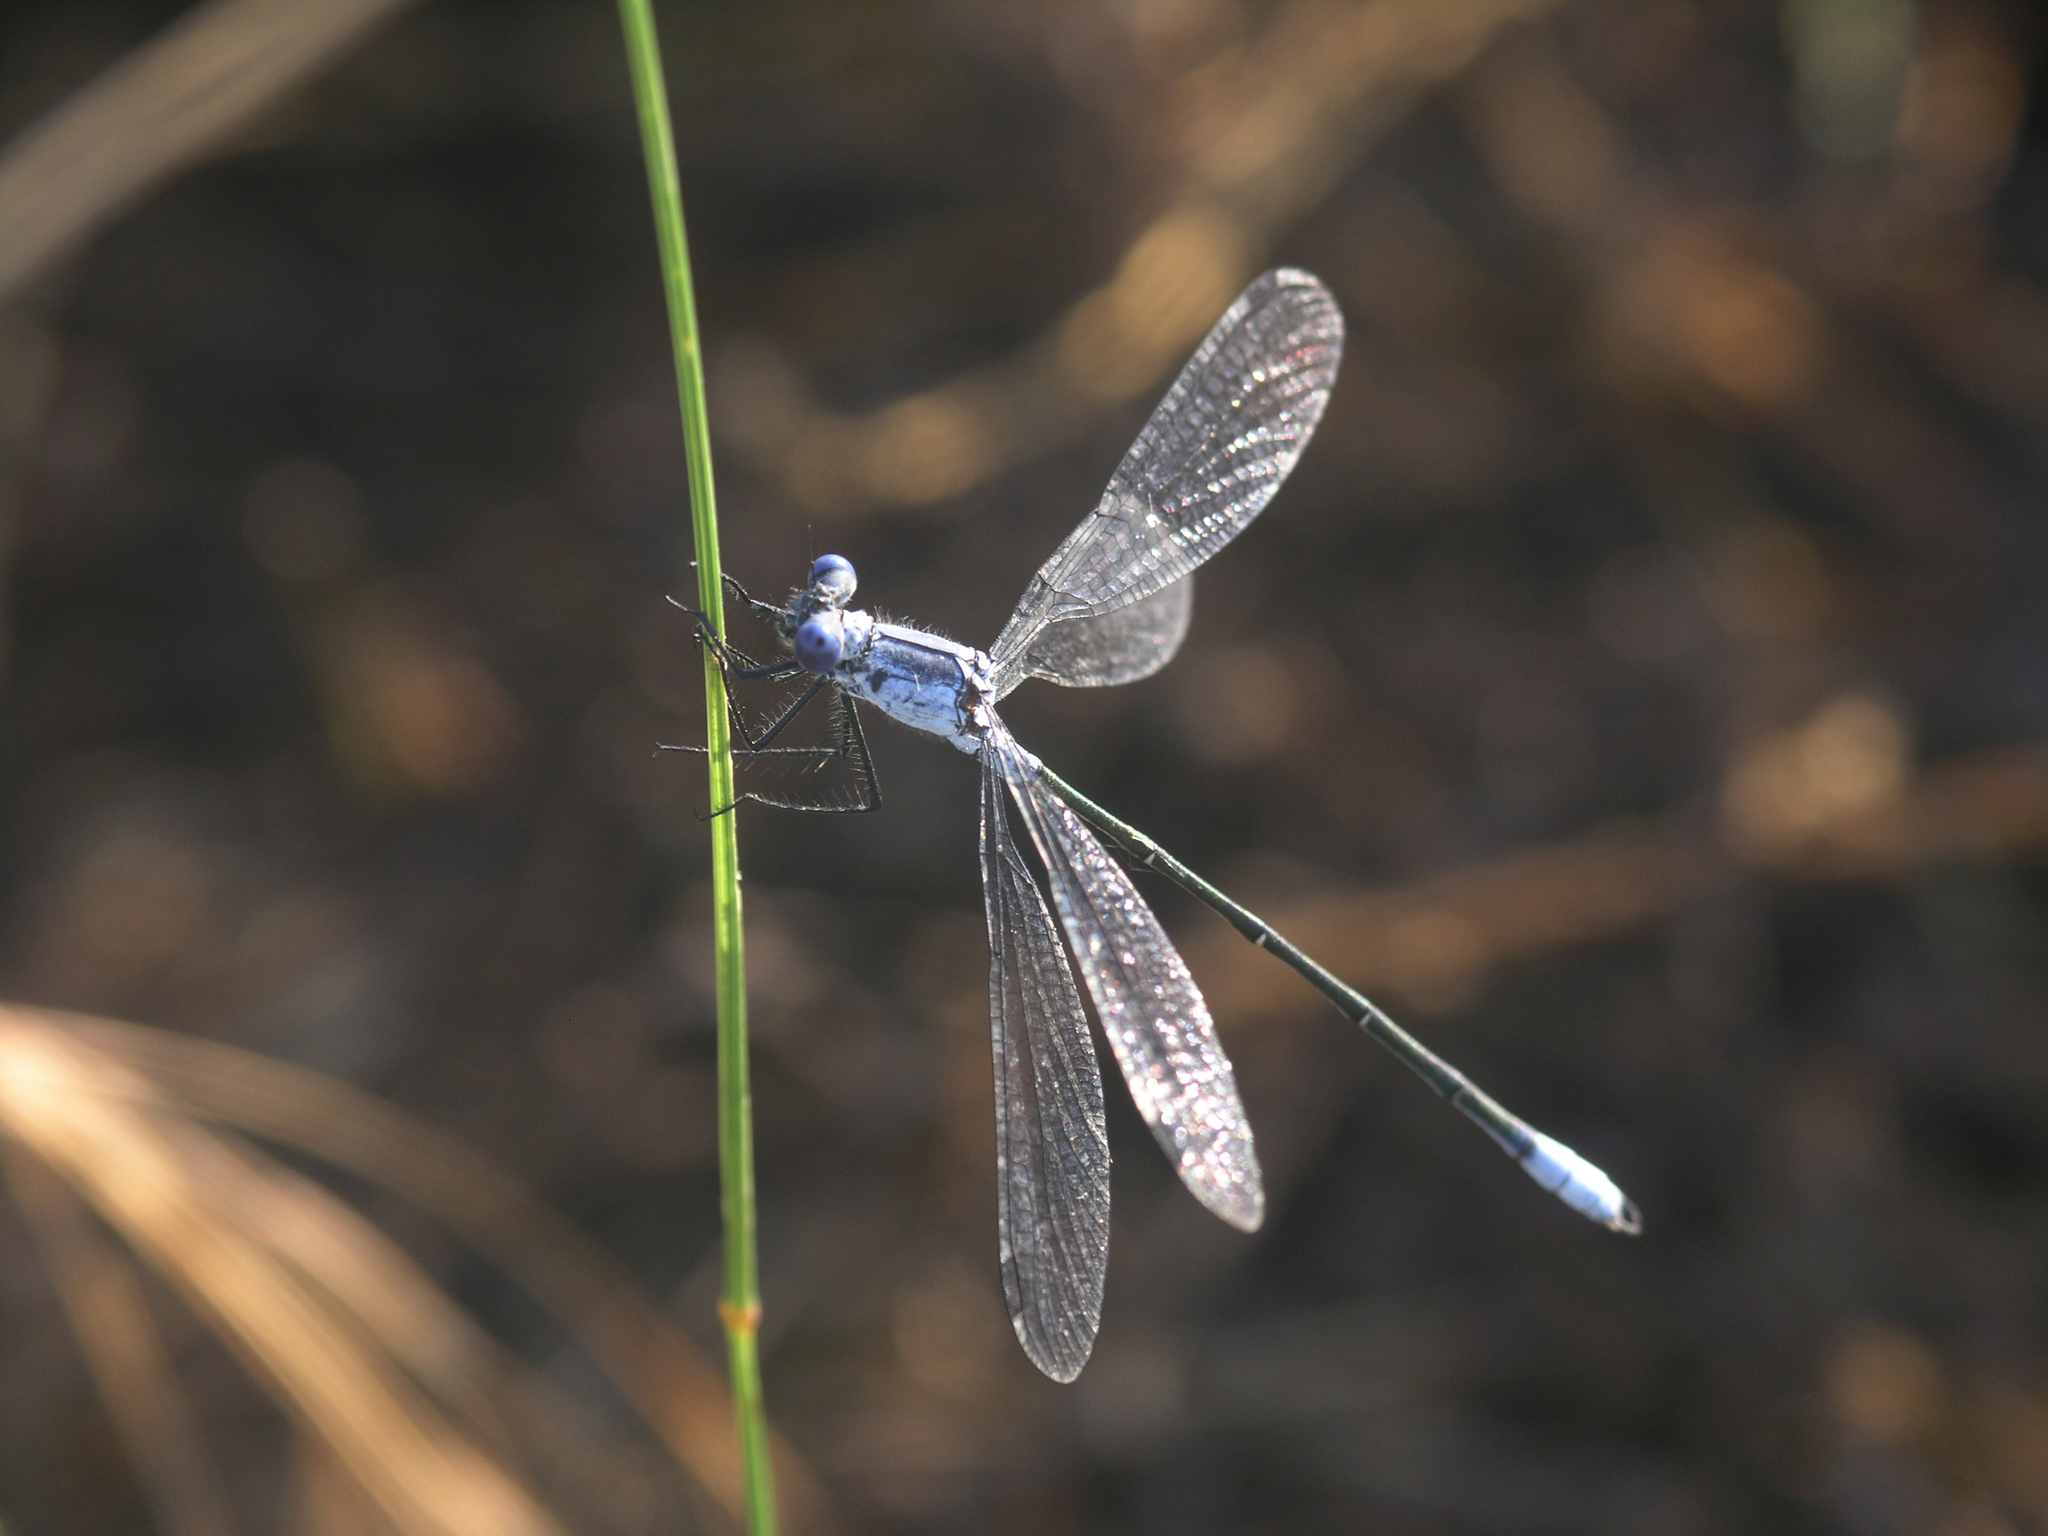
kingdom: Animalia
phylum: Arthropoda
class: Insecta
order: Odonata
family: Lestidae
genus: Lestes
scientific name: Lestes macrostigma
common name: Dark spreadwing
